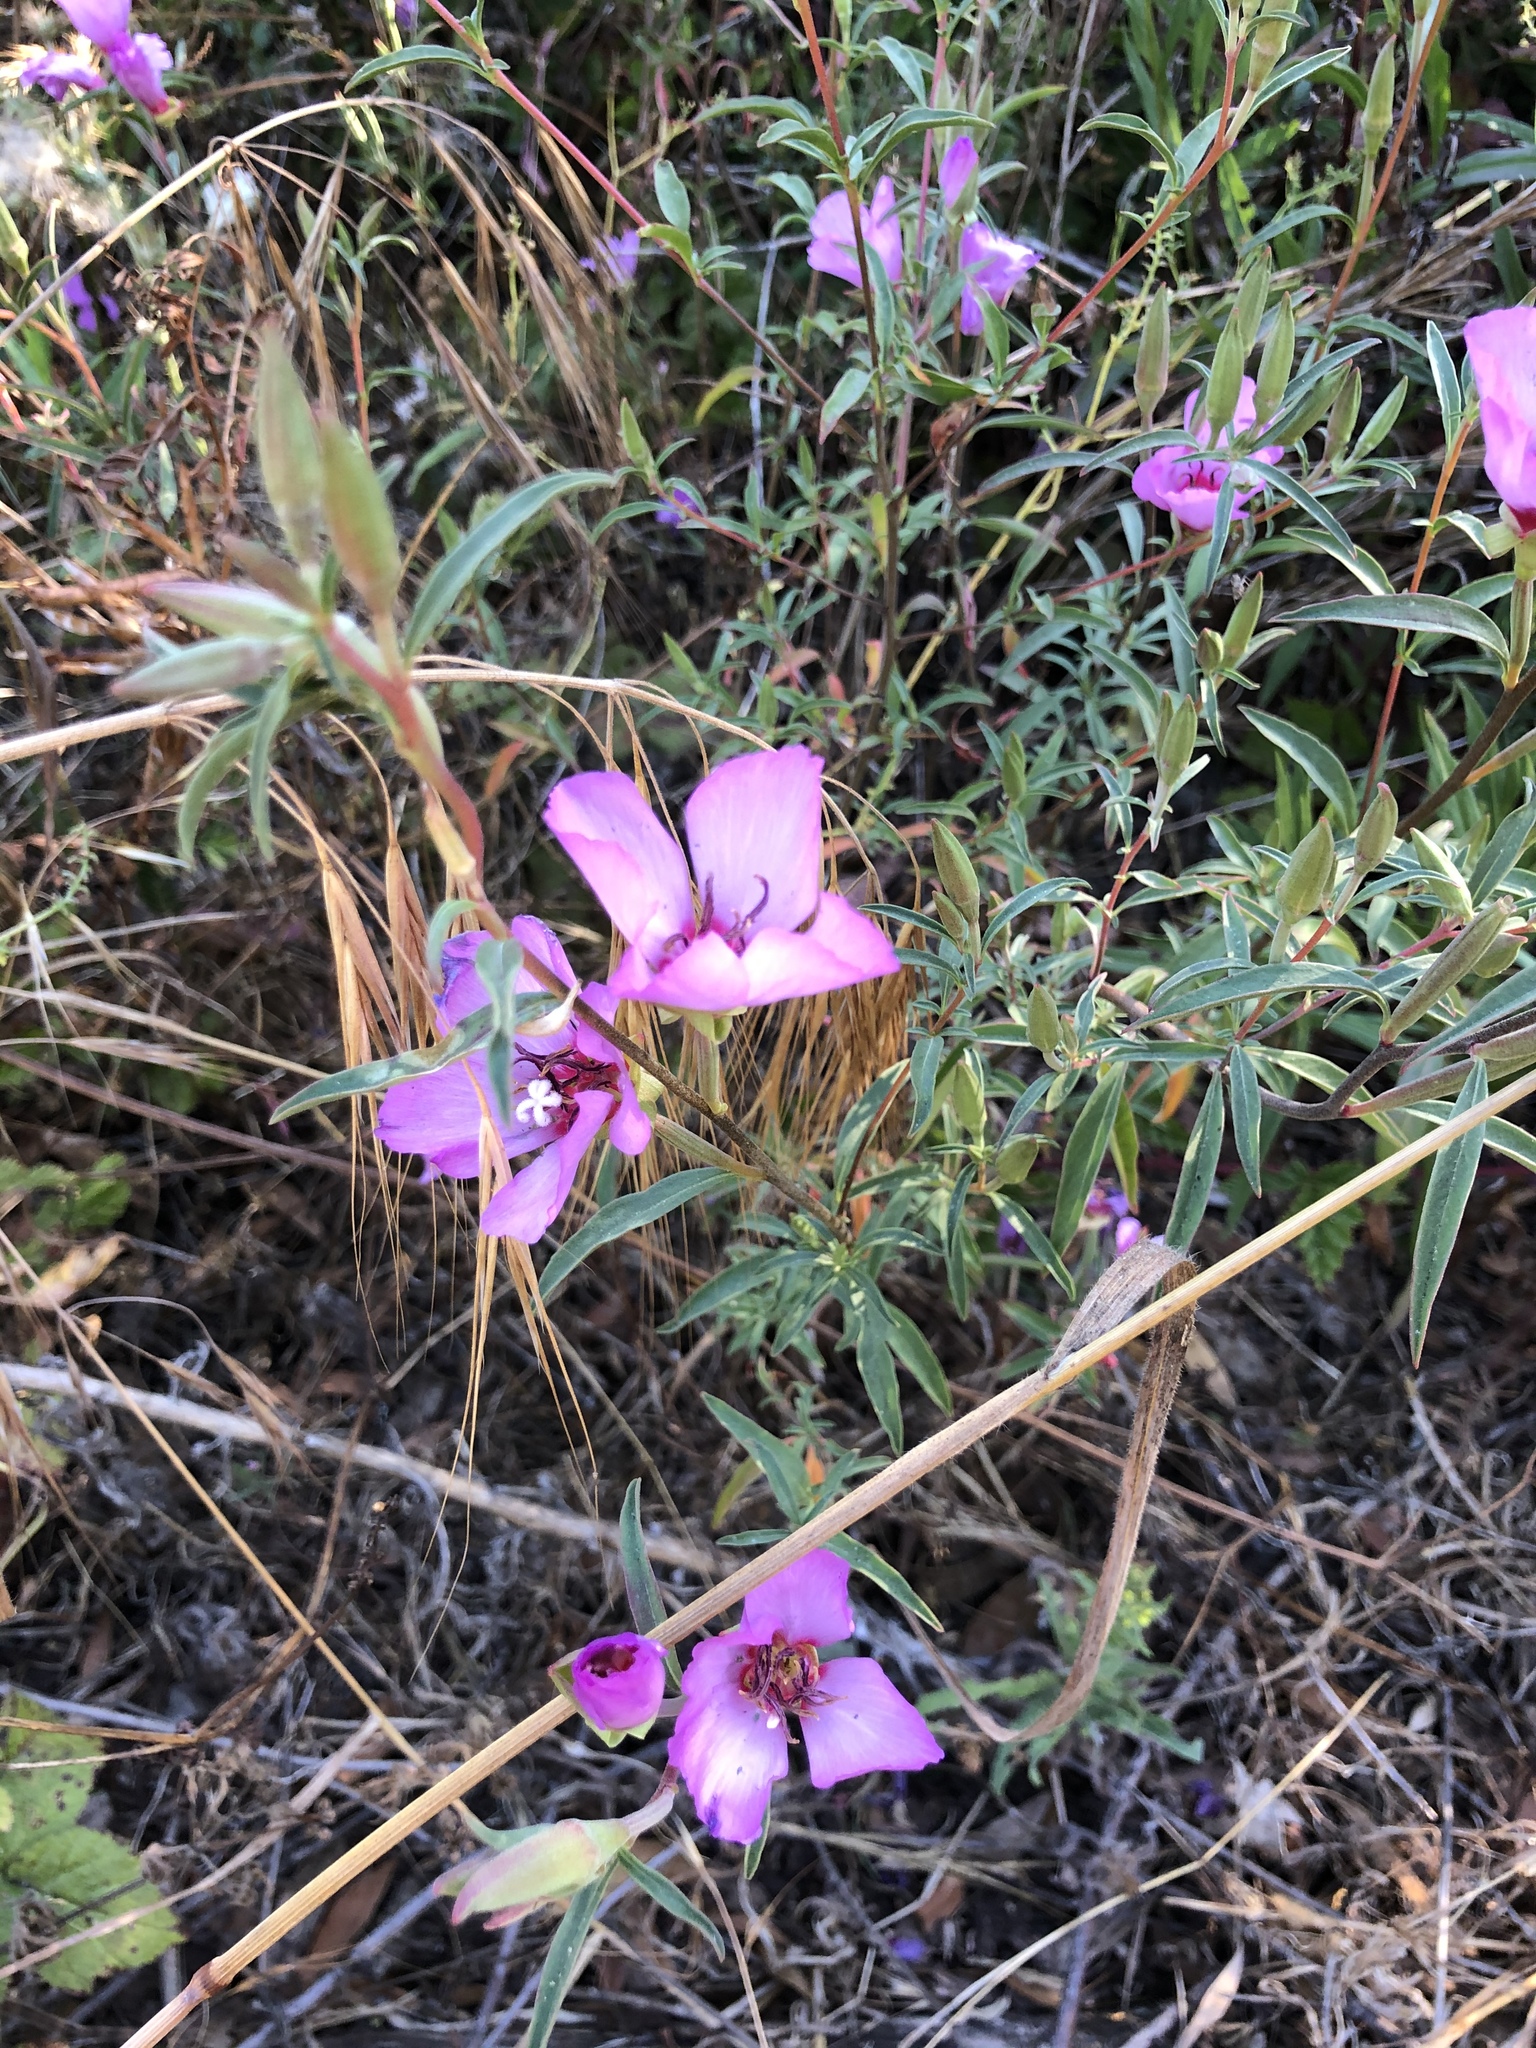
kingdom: Plantae
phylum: Tracheophyta
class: Magnoliopsida
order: Myrtales
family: Onagraceae
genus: Clarkia
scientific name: Clarkia rubicunda
